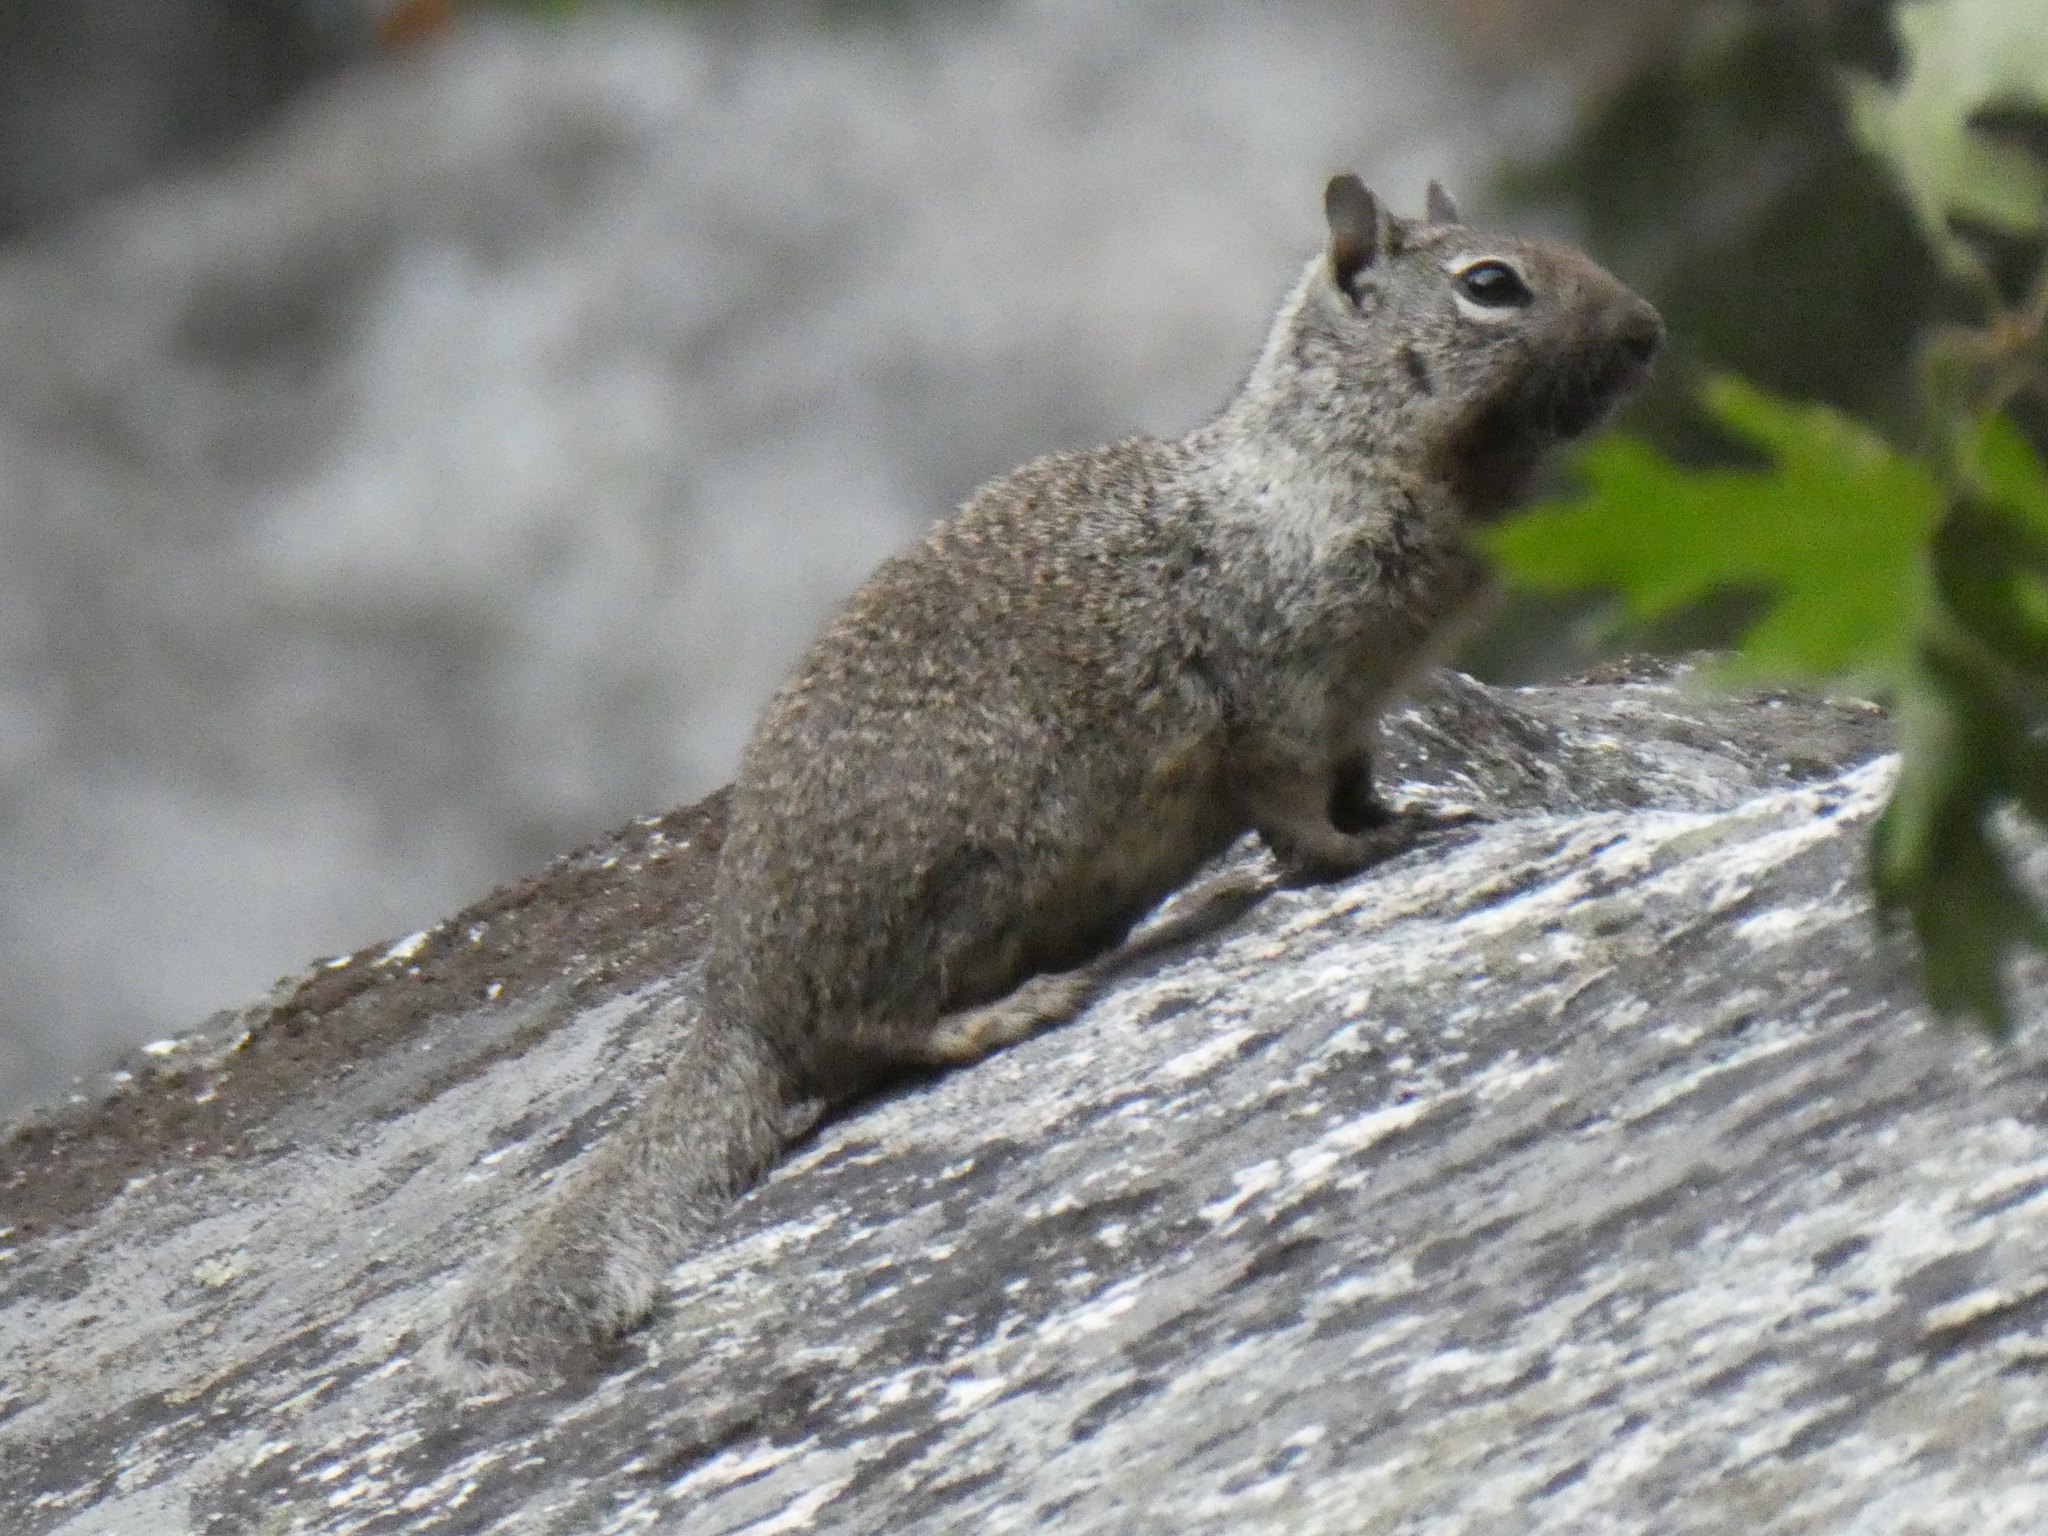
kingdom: Animalia
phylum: Chordata
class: Mammalia
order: Rodentia
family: Sciuridae
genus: Otospermophilus
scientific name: Otospermophilus beecheyi
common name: California ground squirrel
